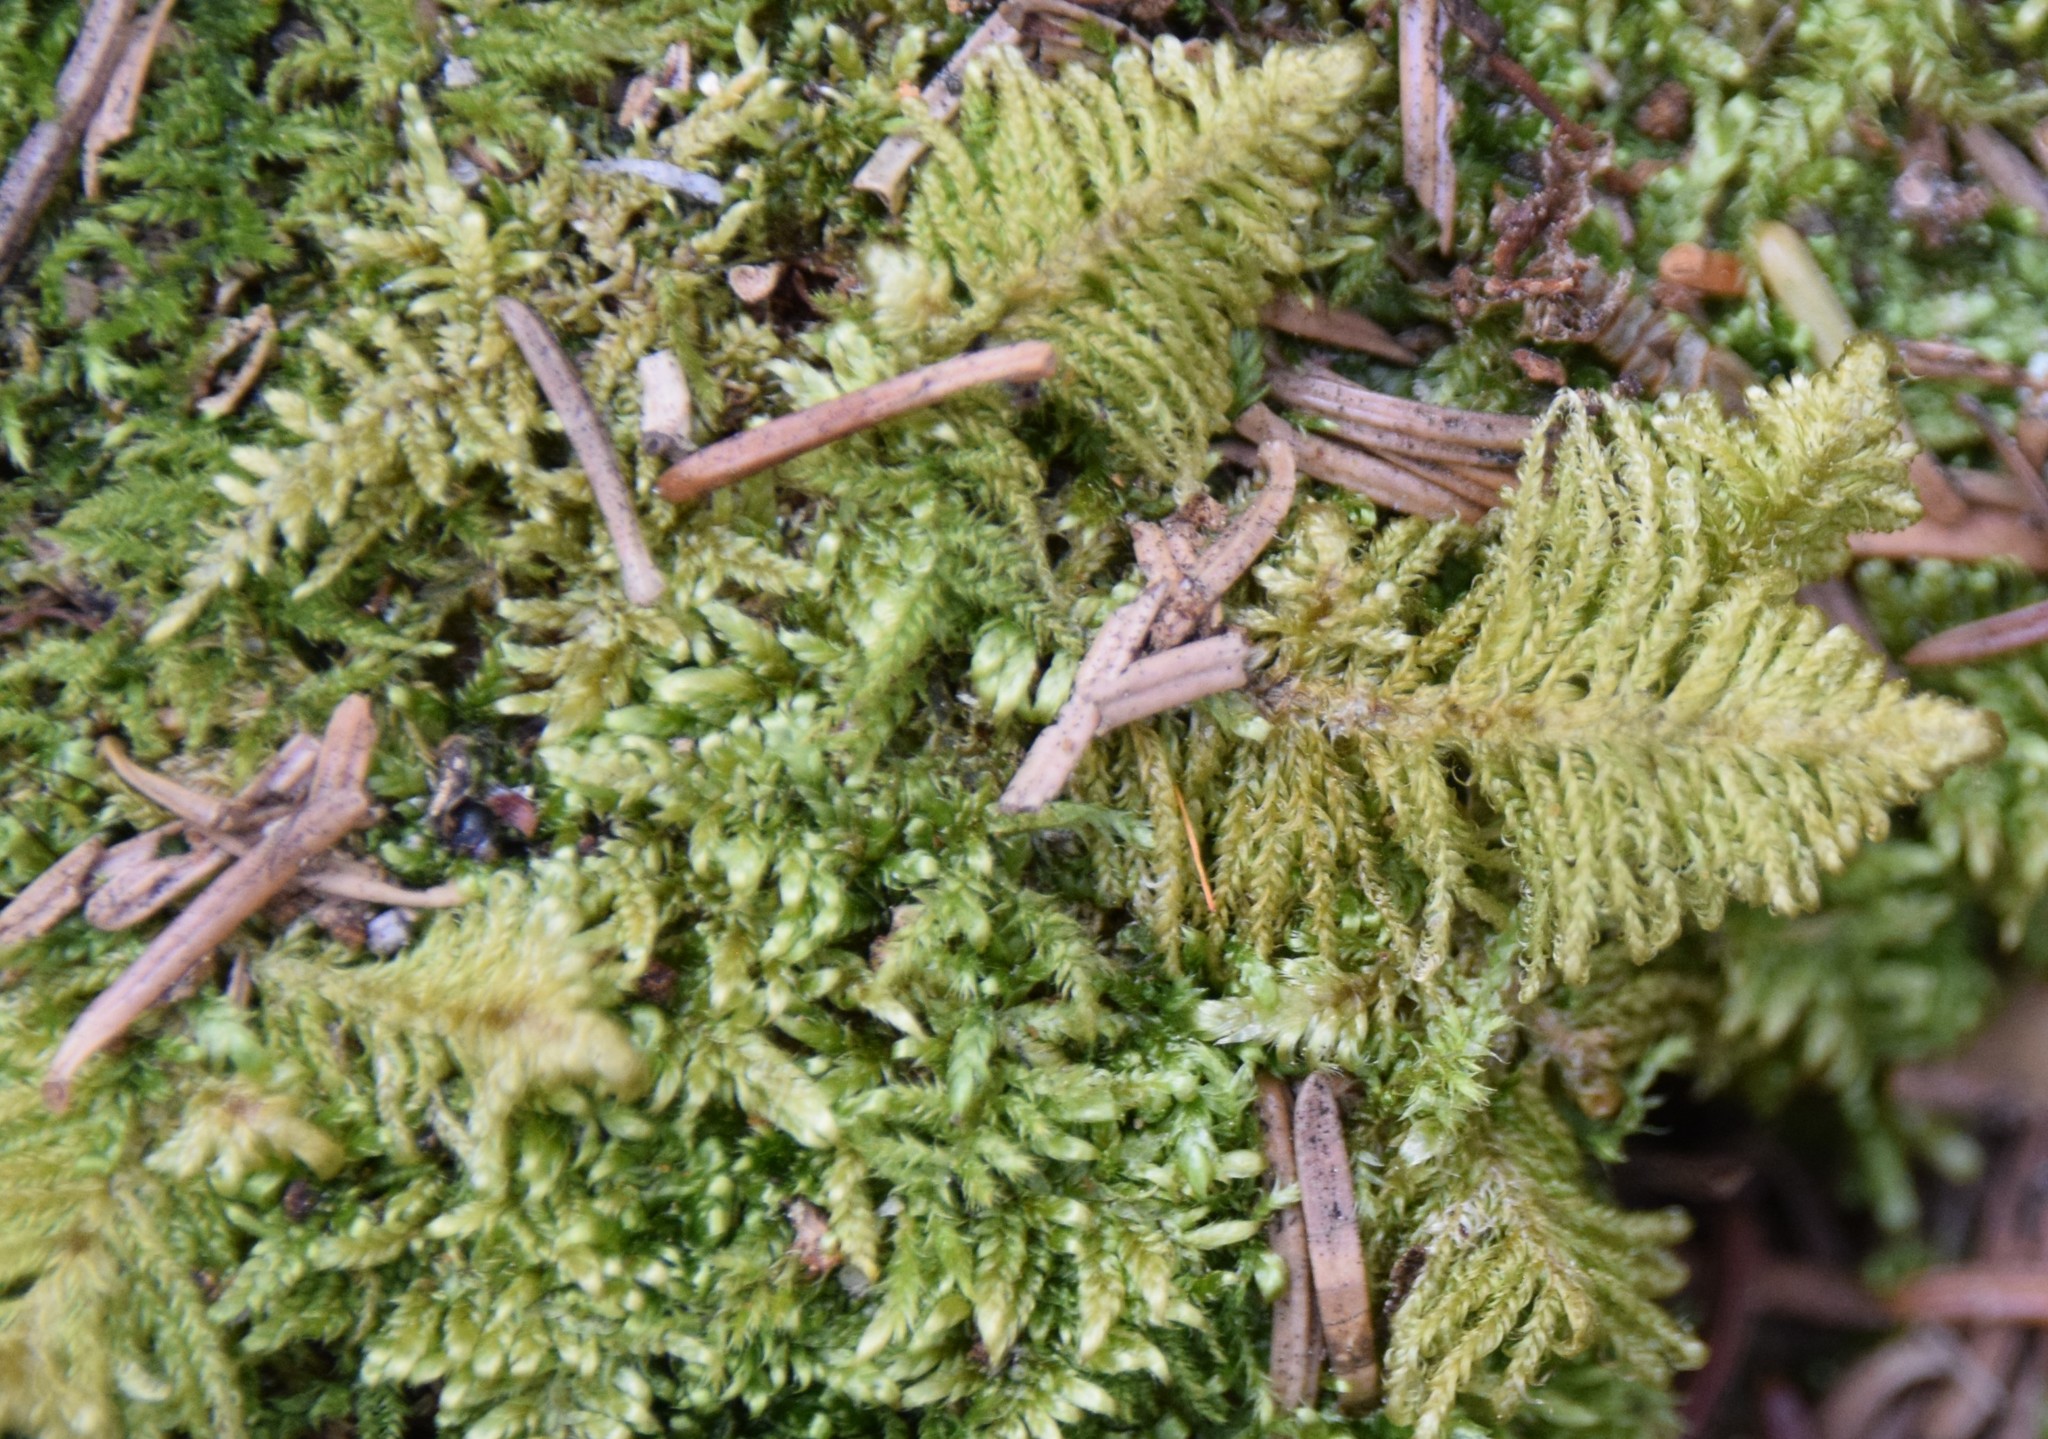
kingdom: Plantae
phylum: Bryophyta
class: Bryopsida
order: Hypnales
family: Pylaisiaceae
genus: Ptilium
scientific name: Ptilium crista-castrensis
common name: Knight's plume moss
